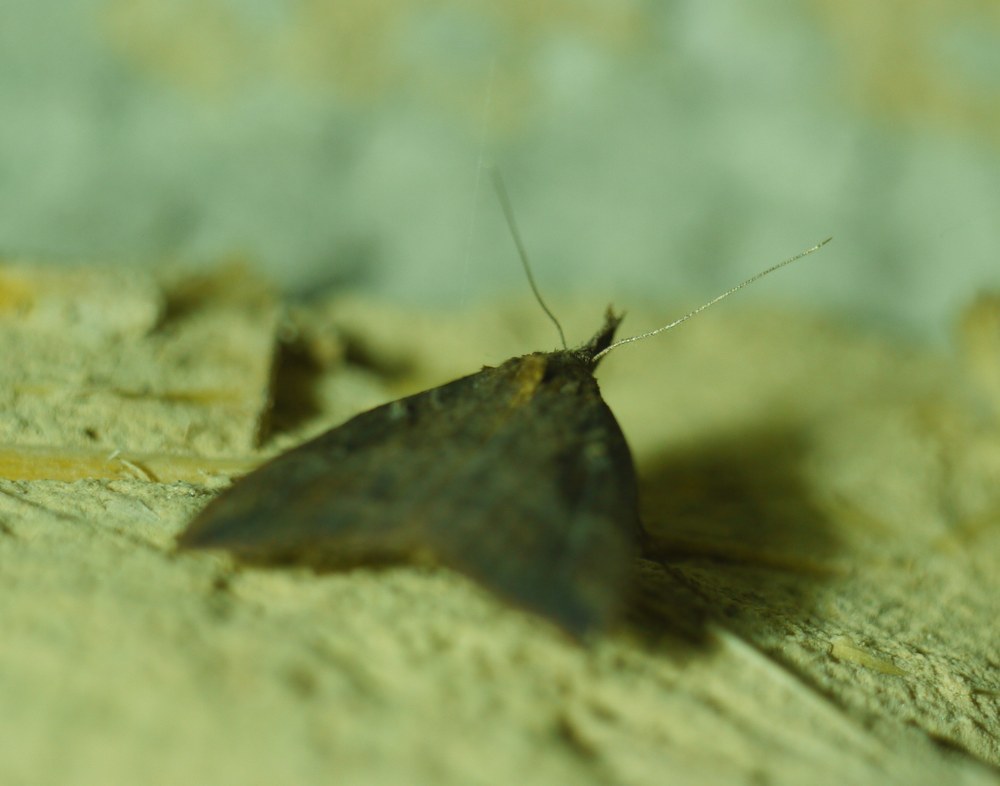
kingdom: Animalia
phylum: Arthropoda
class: Insecta
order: Lepidoptera
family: Erebidae
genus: Hypena
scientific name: Hypena rostralis
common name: Buttoned snout
